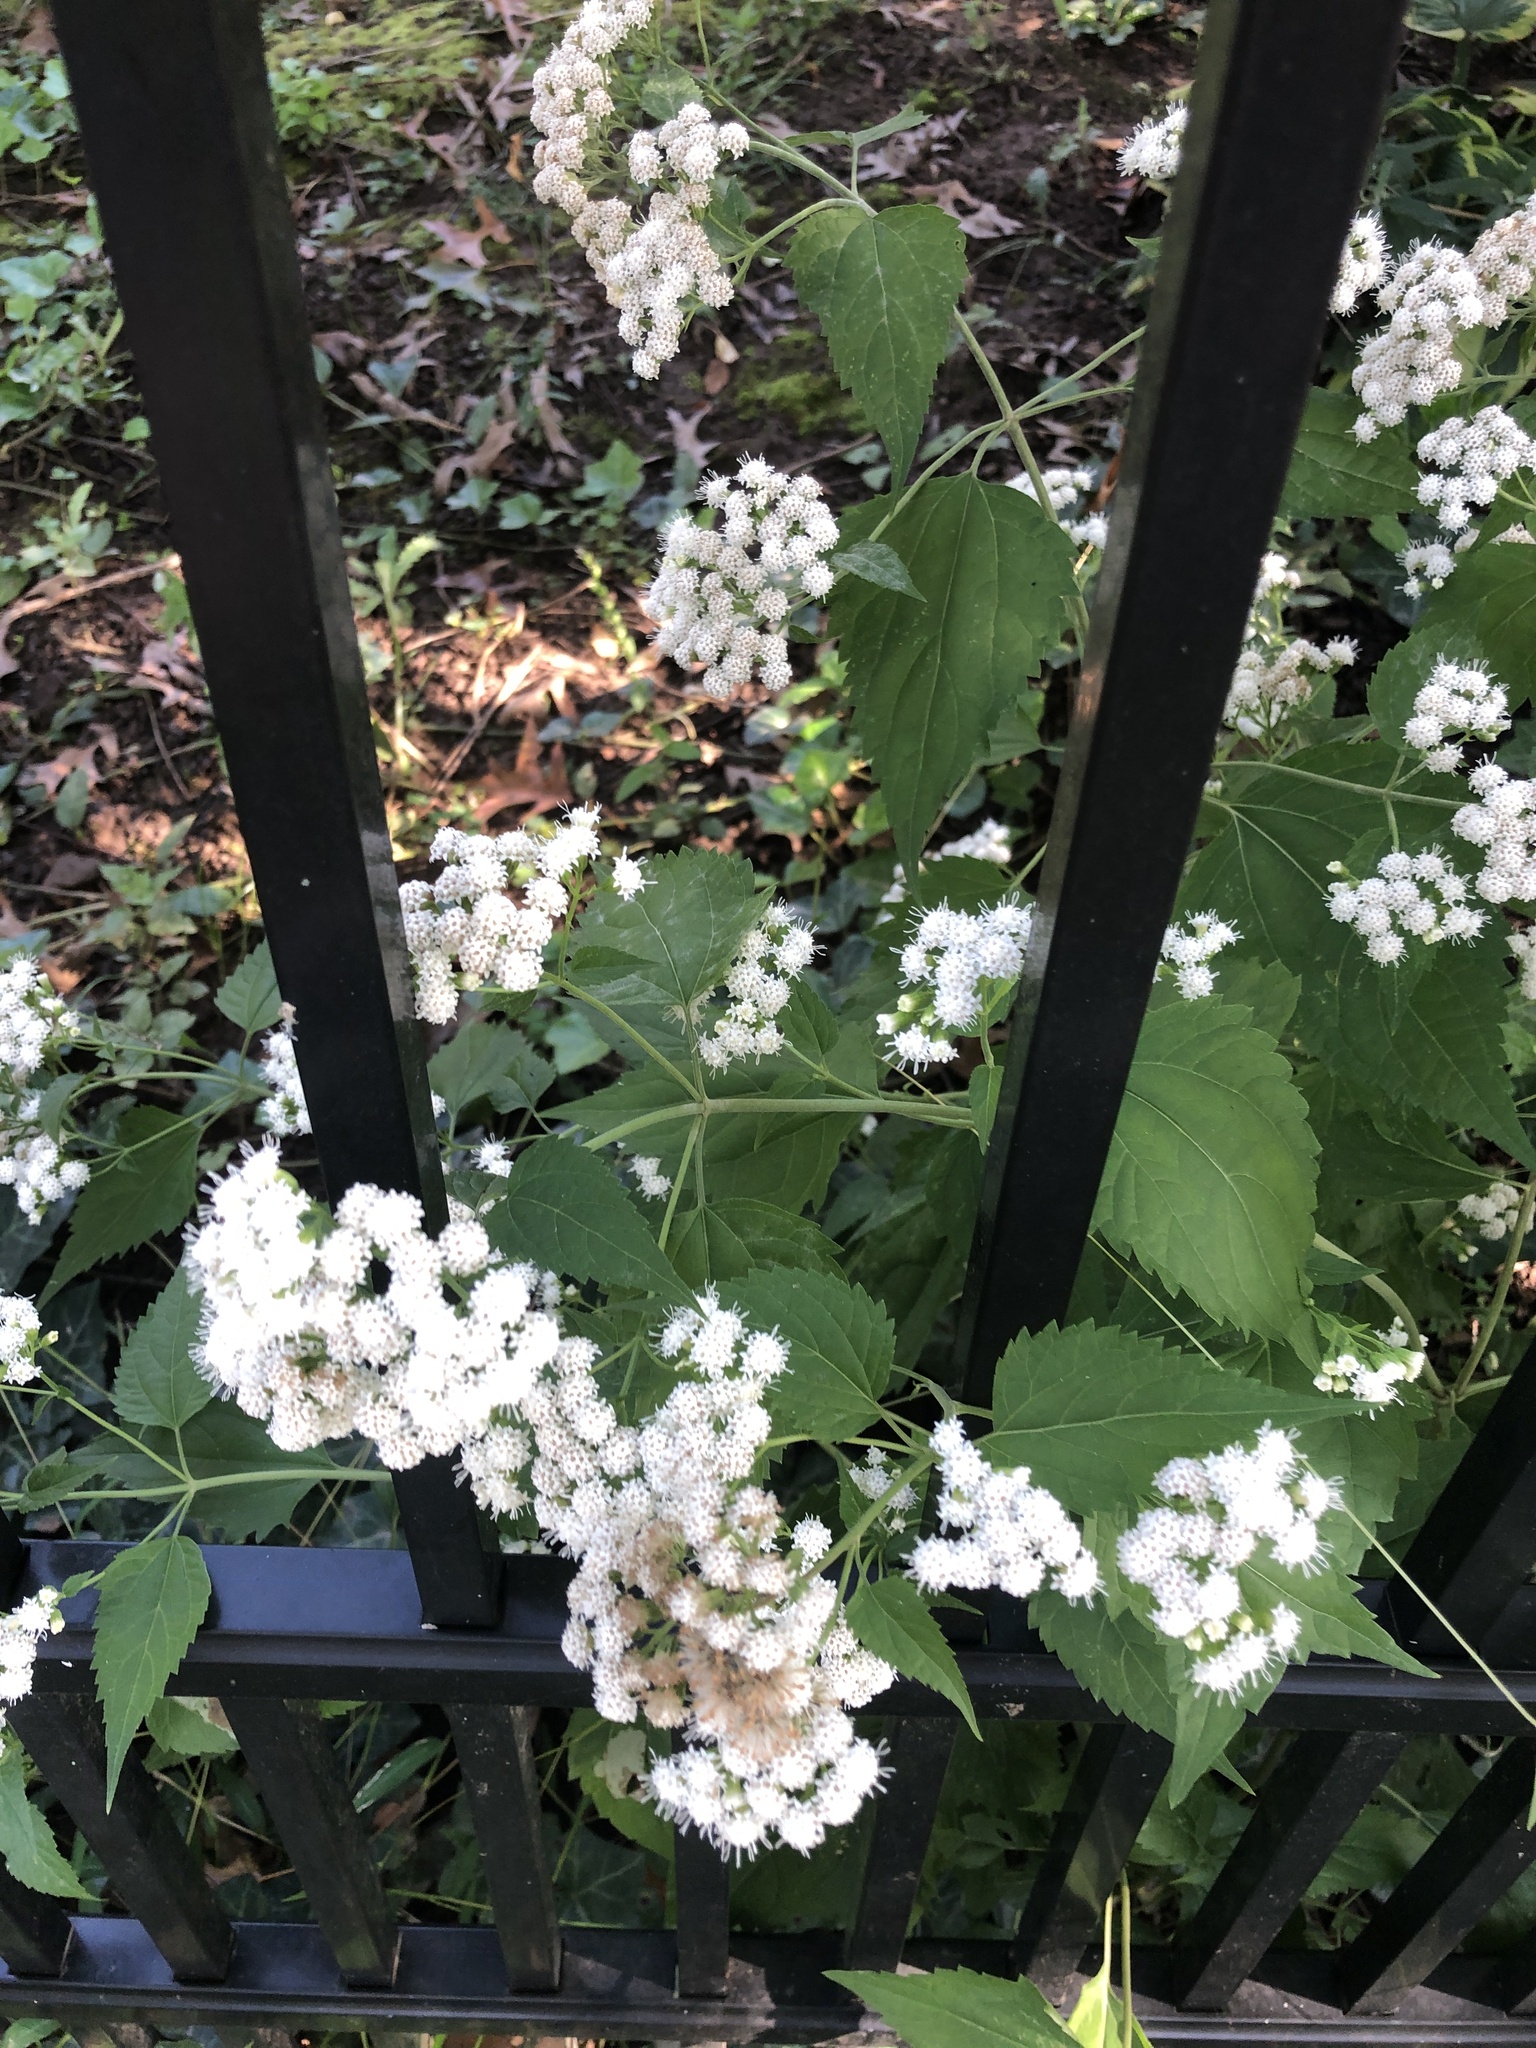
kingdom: Plantae
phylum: Tracheophyta
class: Magnoliopsida
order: Asterales
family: Asteraceae
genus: Ageratina
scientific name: Ageratina altissima
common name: White snakeroot
